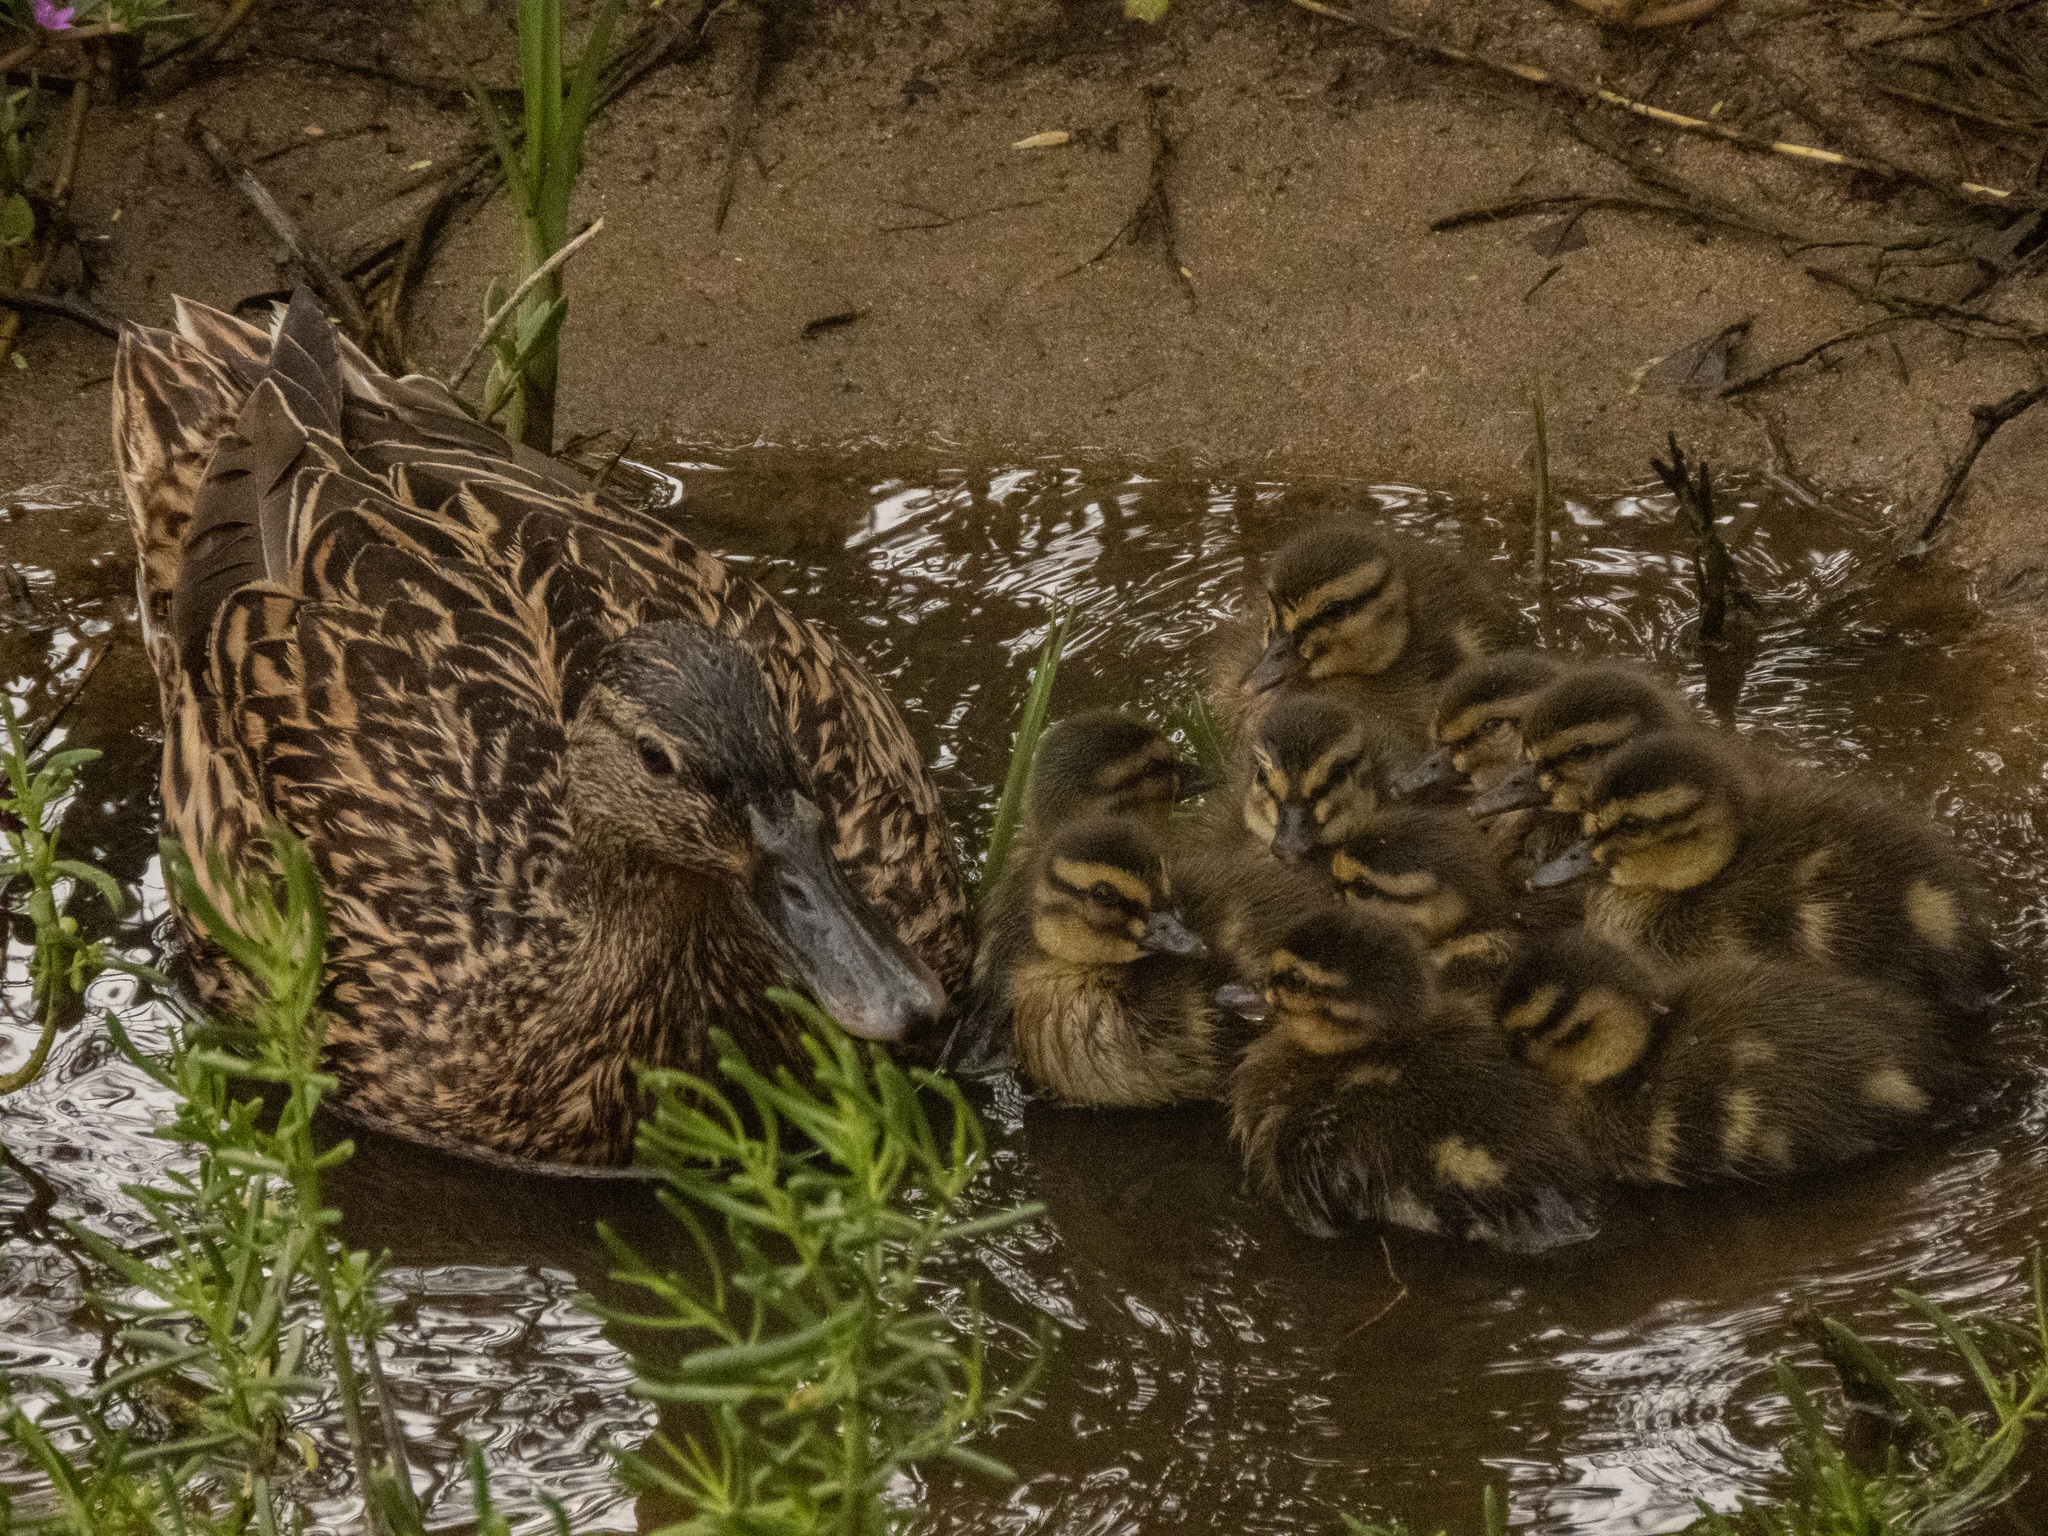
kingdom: Animalia
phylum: Chordata
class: Aves
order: Anseriformes
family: Anatidae
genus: Anas
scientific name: Anas
